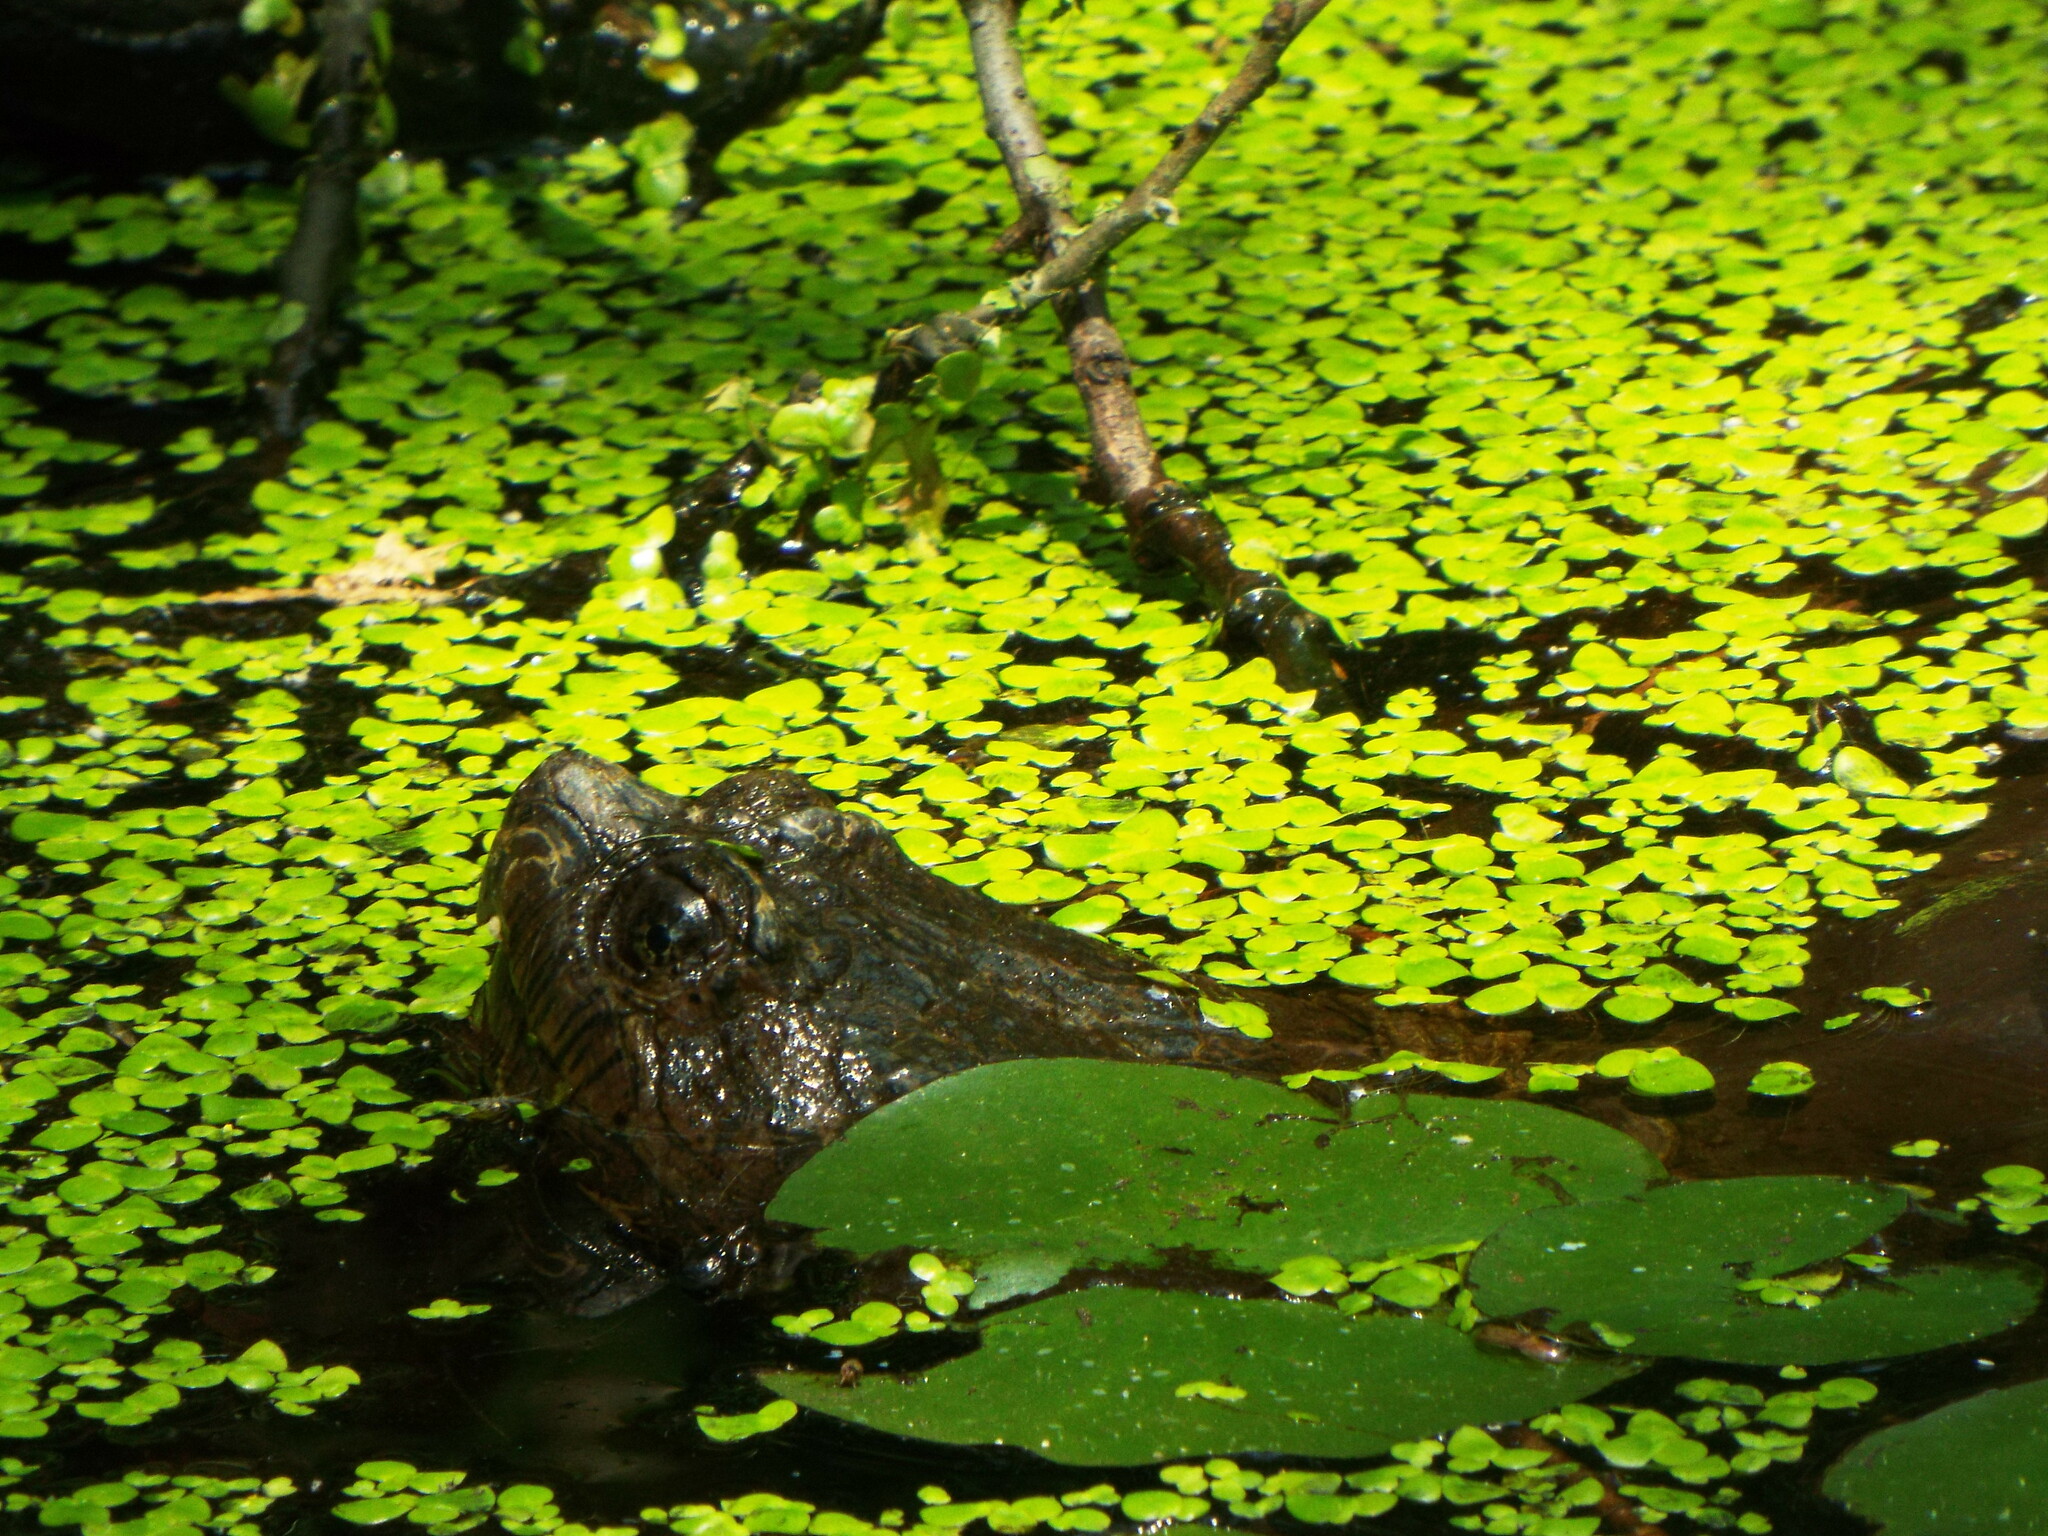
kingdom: Animalia
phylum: Chordata
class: Testudines
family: Chelydridae
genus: Chelydra
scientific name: Chelydra serpentina
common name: Common snapping turtle
